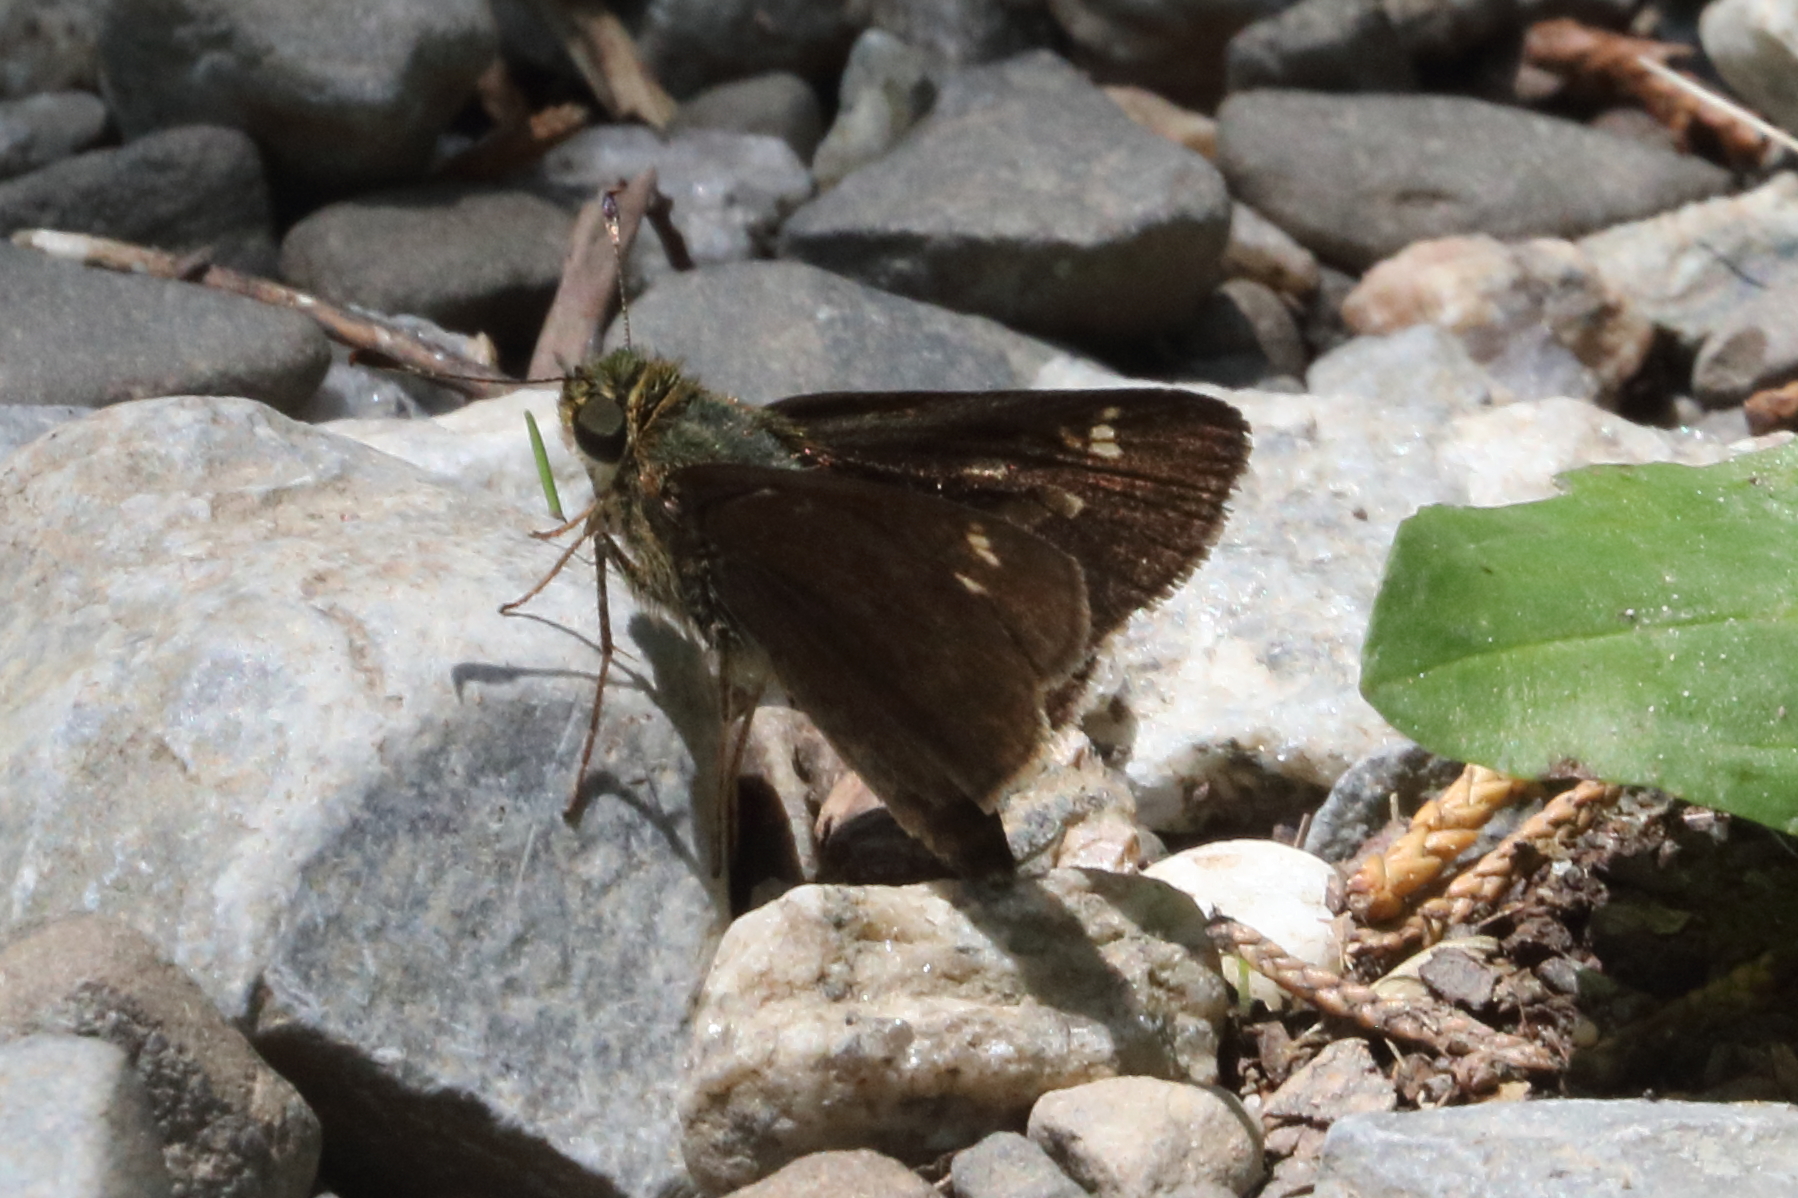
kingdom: Animalia
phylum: Arthropoda
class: Insecta
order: Lepidoptera
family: Hesperiidae
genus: Vernia
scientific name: Vernia verna
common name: Little glassywing
